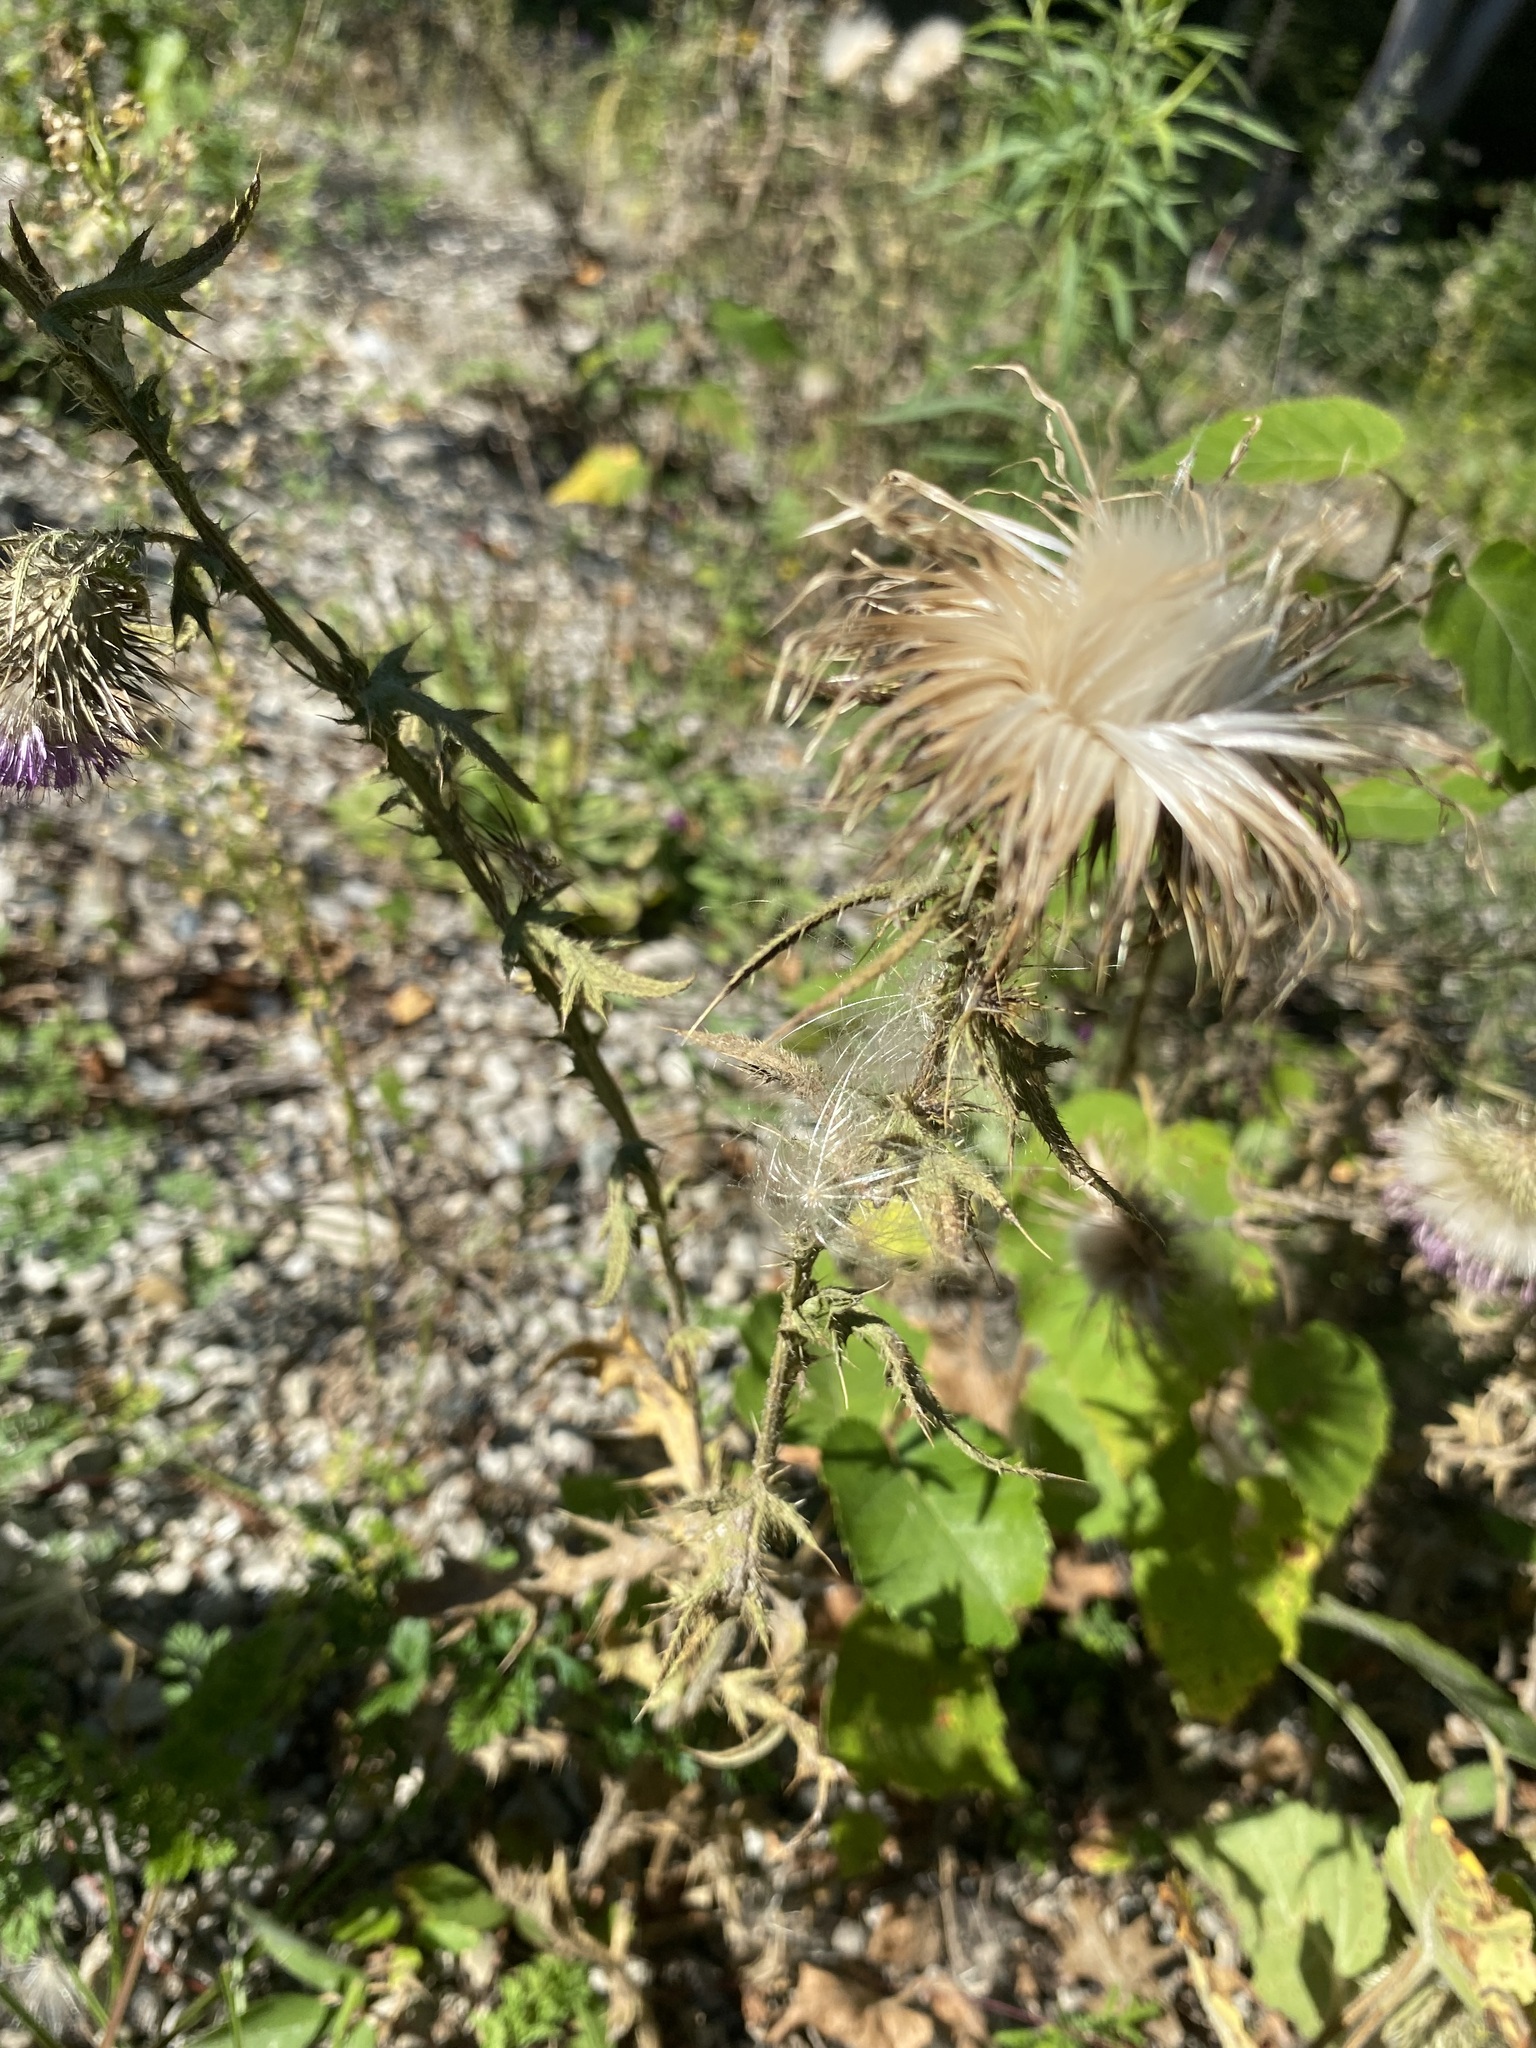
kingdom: Plantae
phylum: Tracheophyta
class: Magnoliopsida
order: Asterales
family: Asteraceae
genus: Cirsium
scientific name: Cirsium pumilum
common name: Pasture thistle
